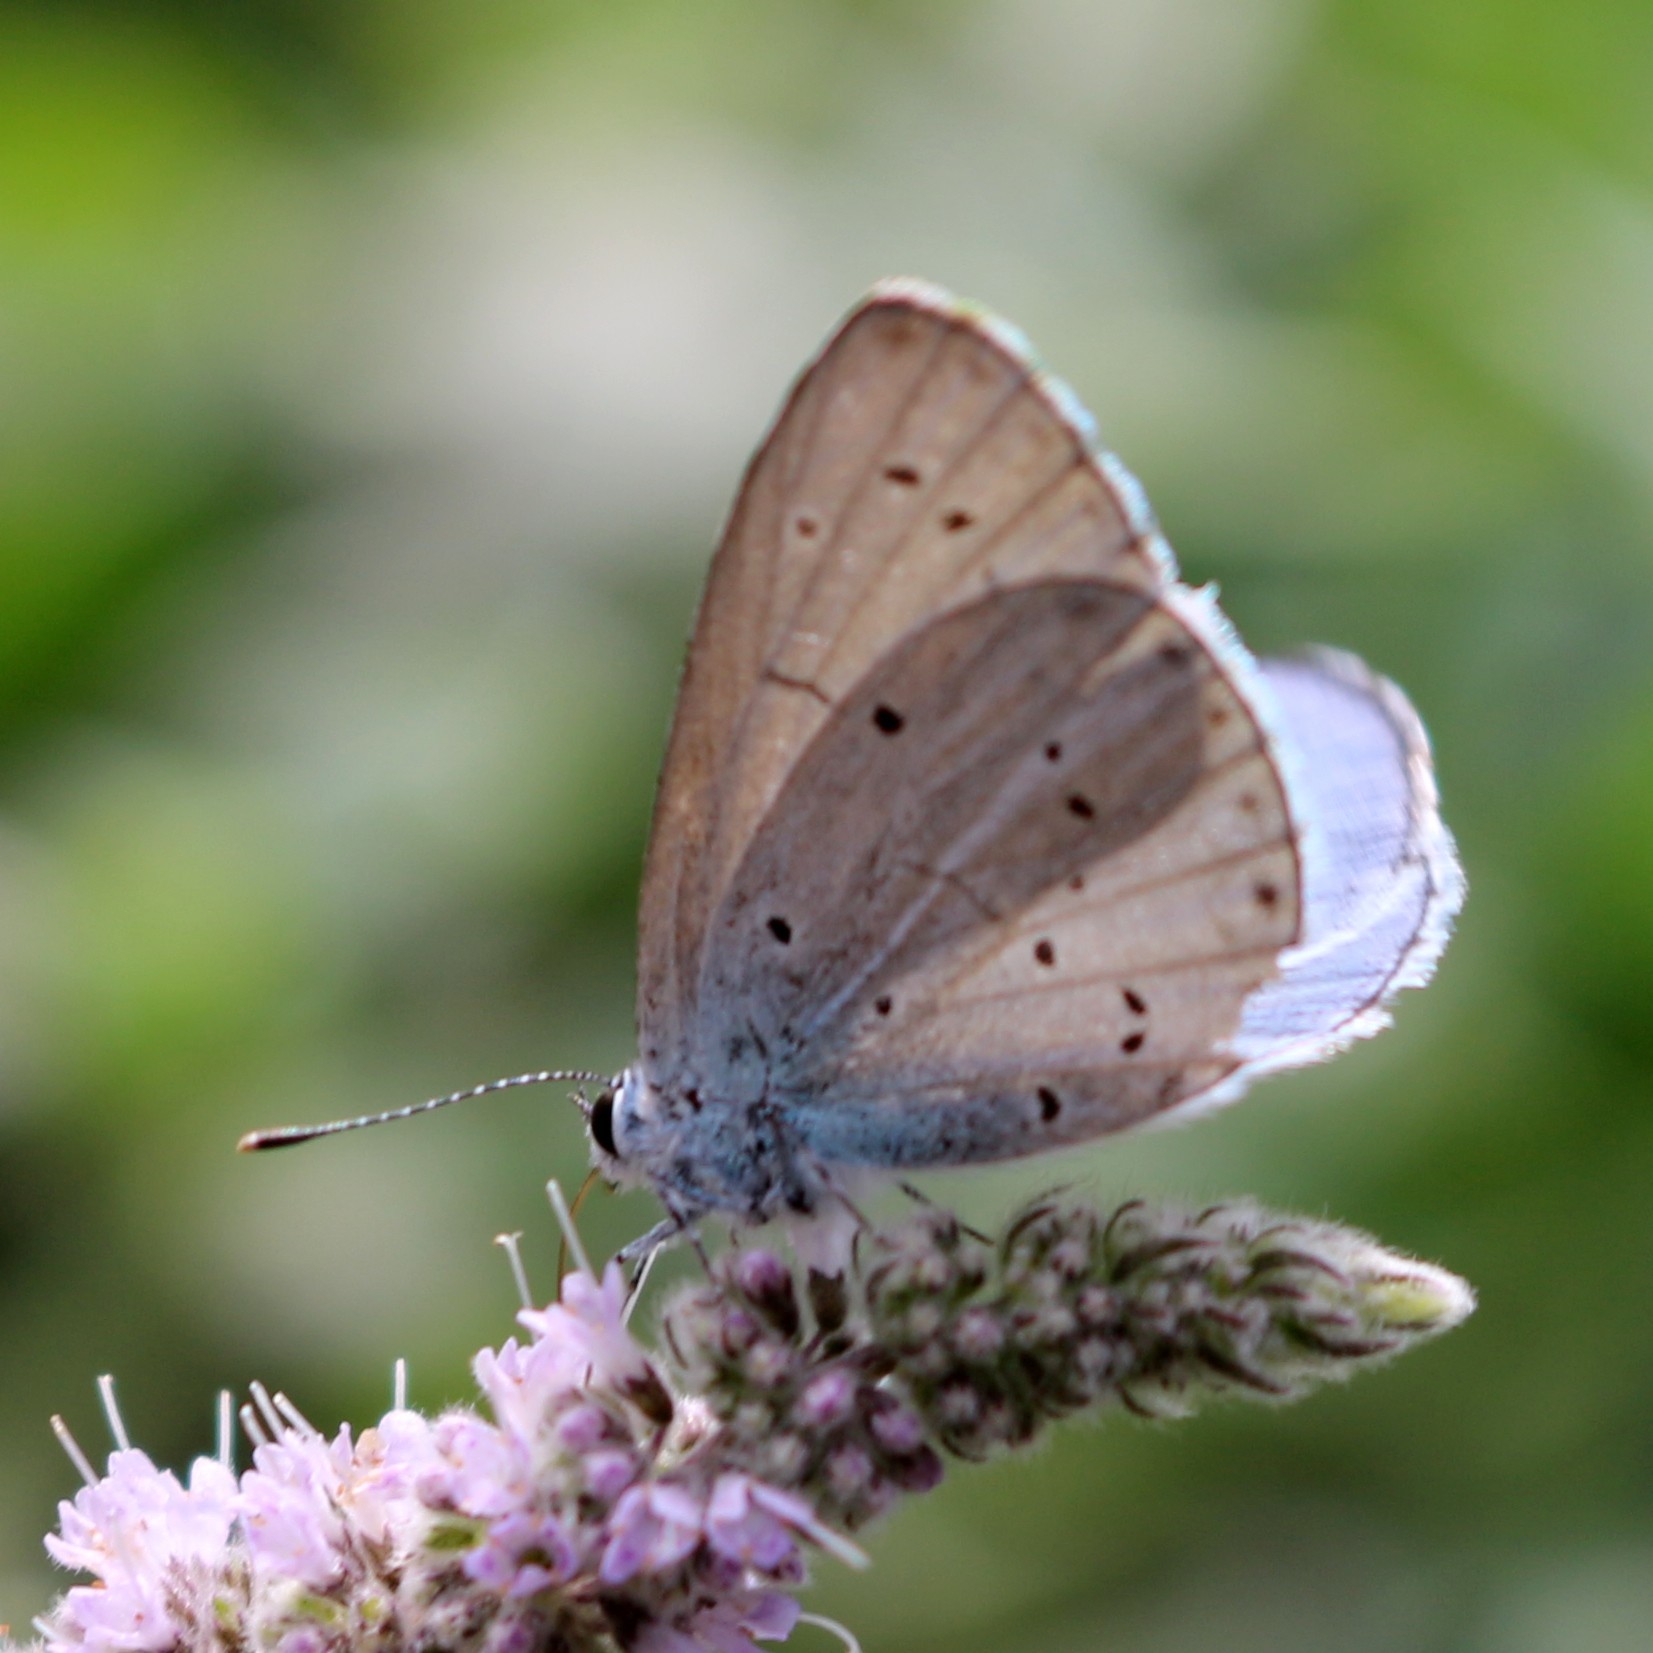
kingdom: Animalia
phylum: Arthropoda
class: Insecta
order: Lepidoptera
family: Lycaenidae
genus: Celastrina
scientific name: Celastrina argiolus
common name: Holly blue
